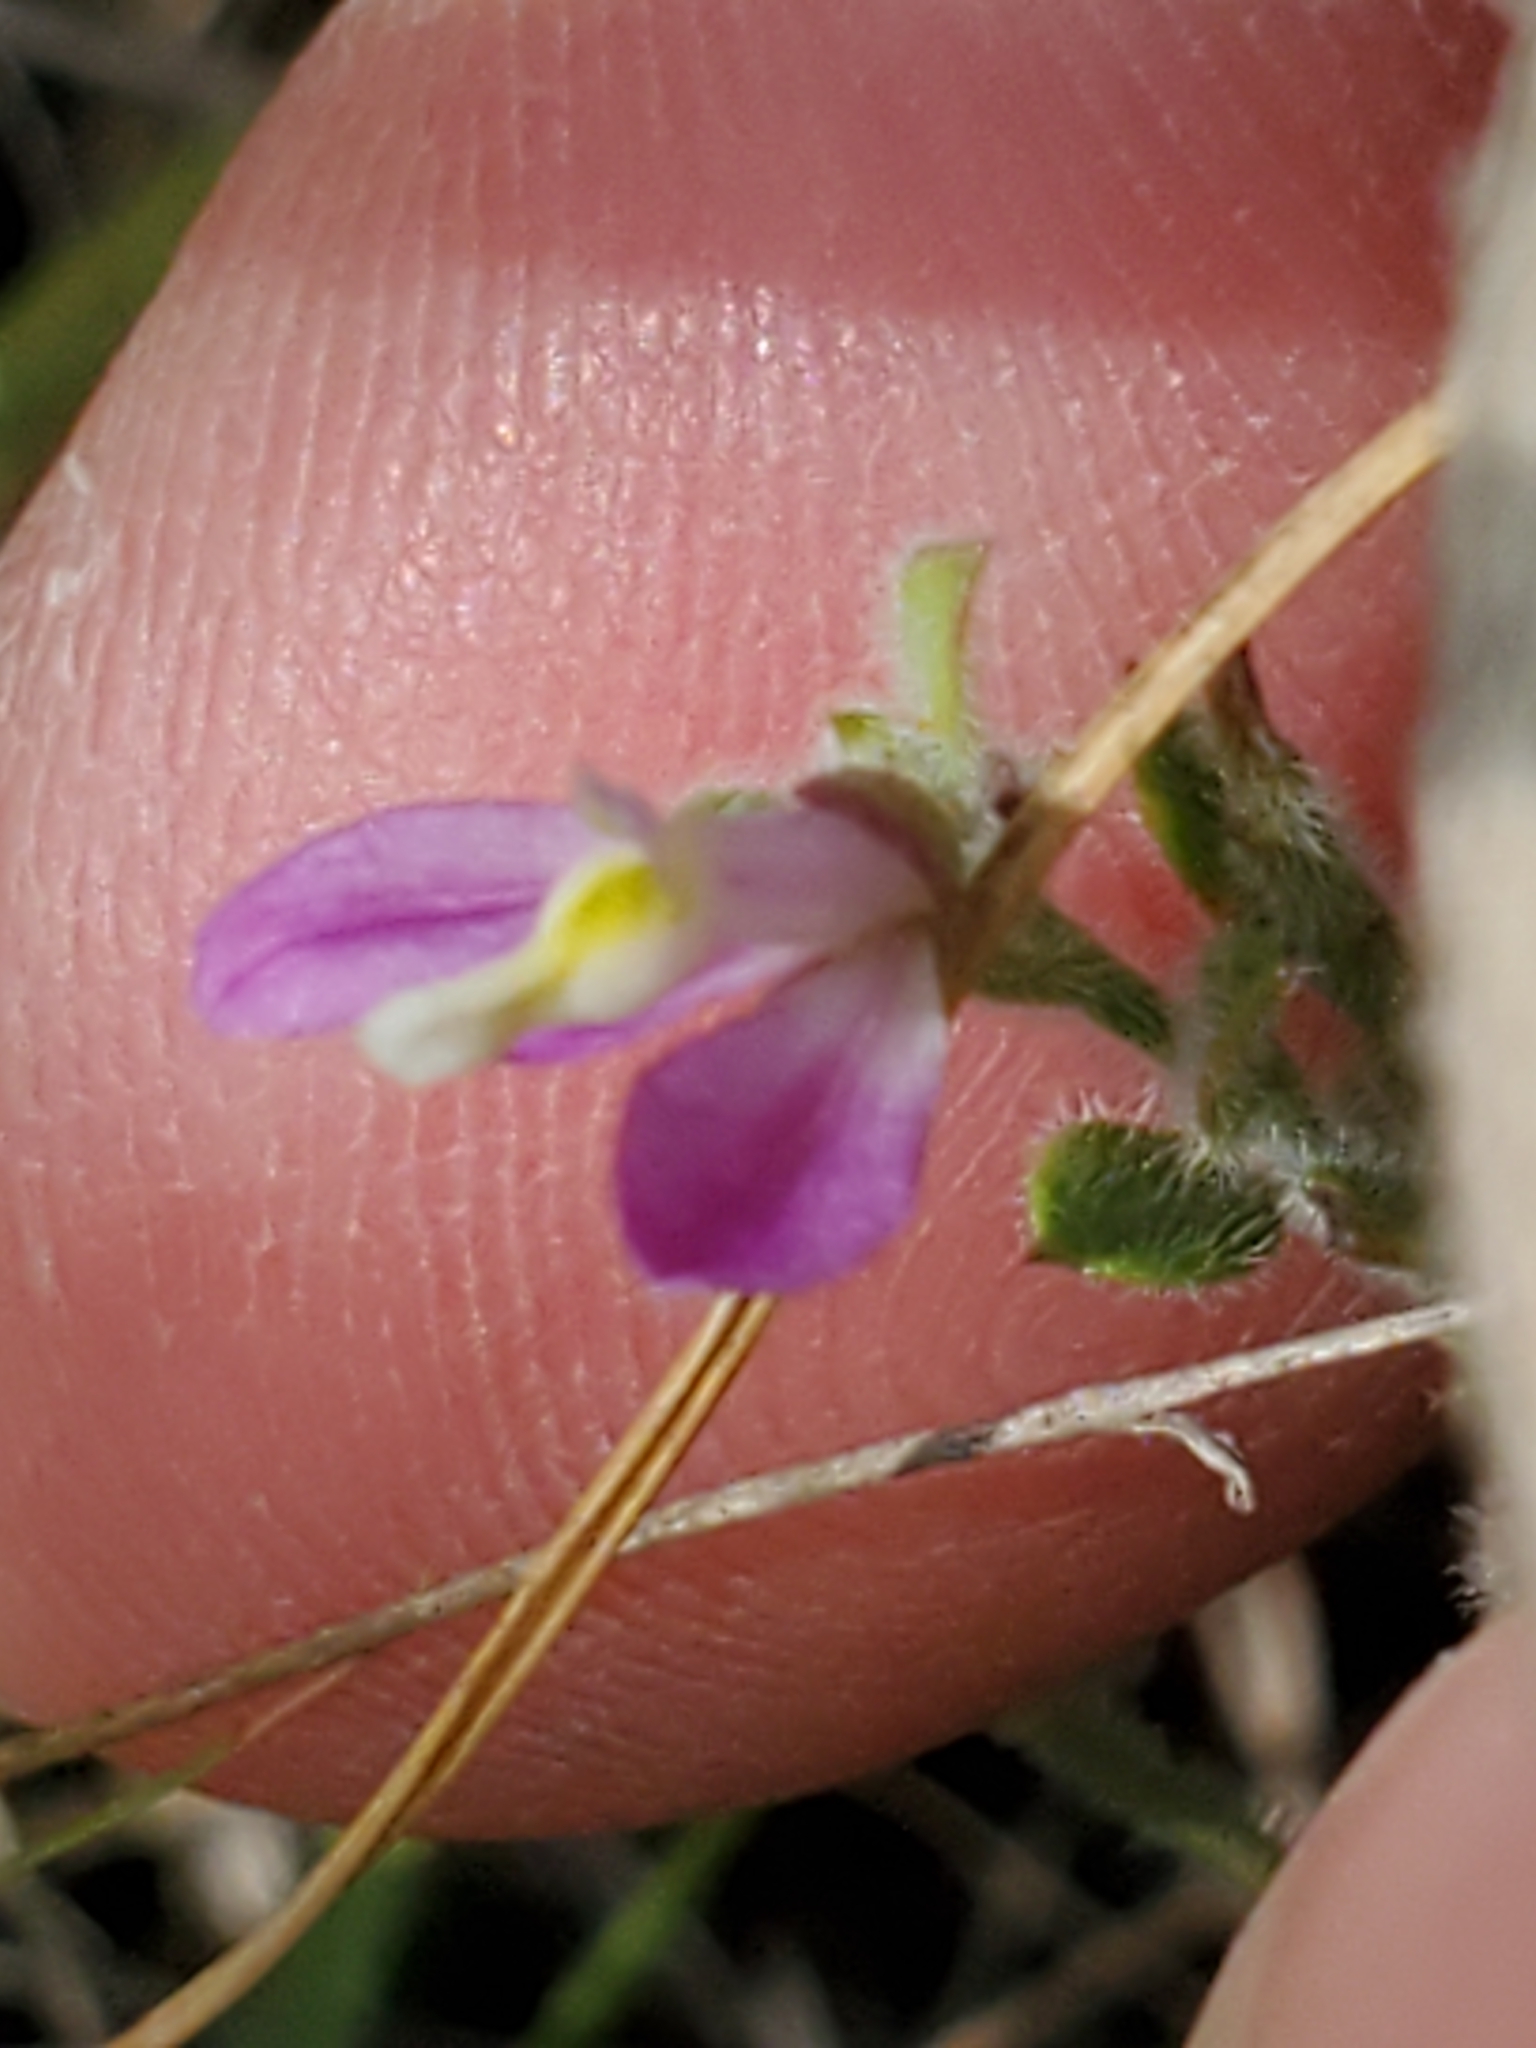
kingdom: Plantae
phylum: Tracheophyta
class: Magnoliopsida
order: Fabales
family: Polygalaceae
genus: Rhinotropis
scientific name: Rhinotropis lindheimeri
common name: Shrubby milkwort
